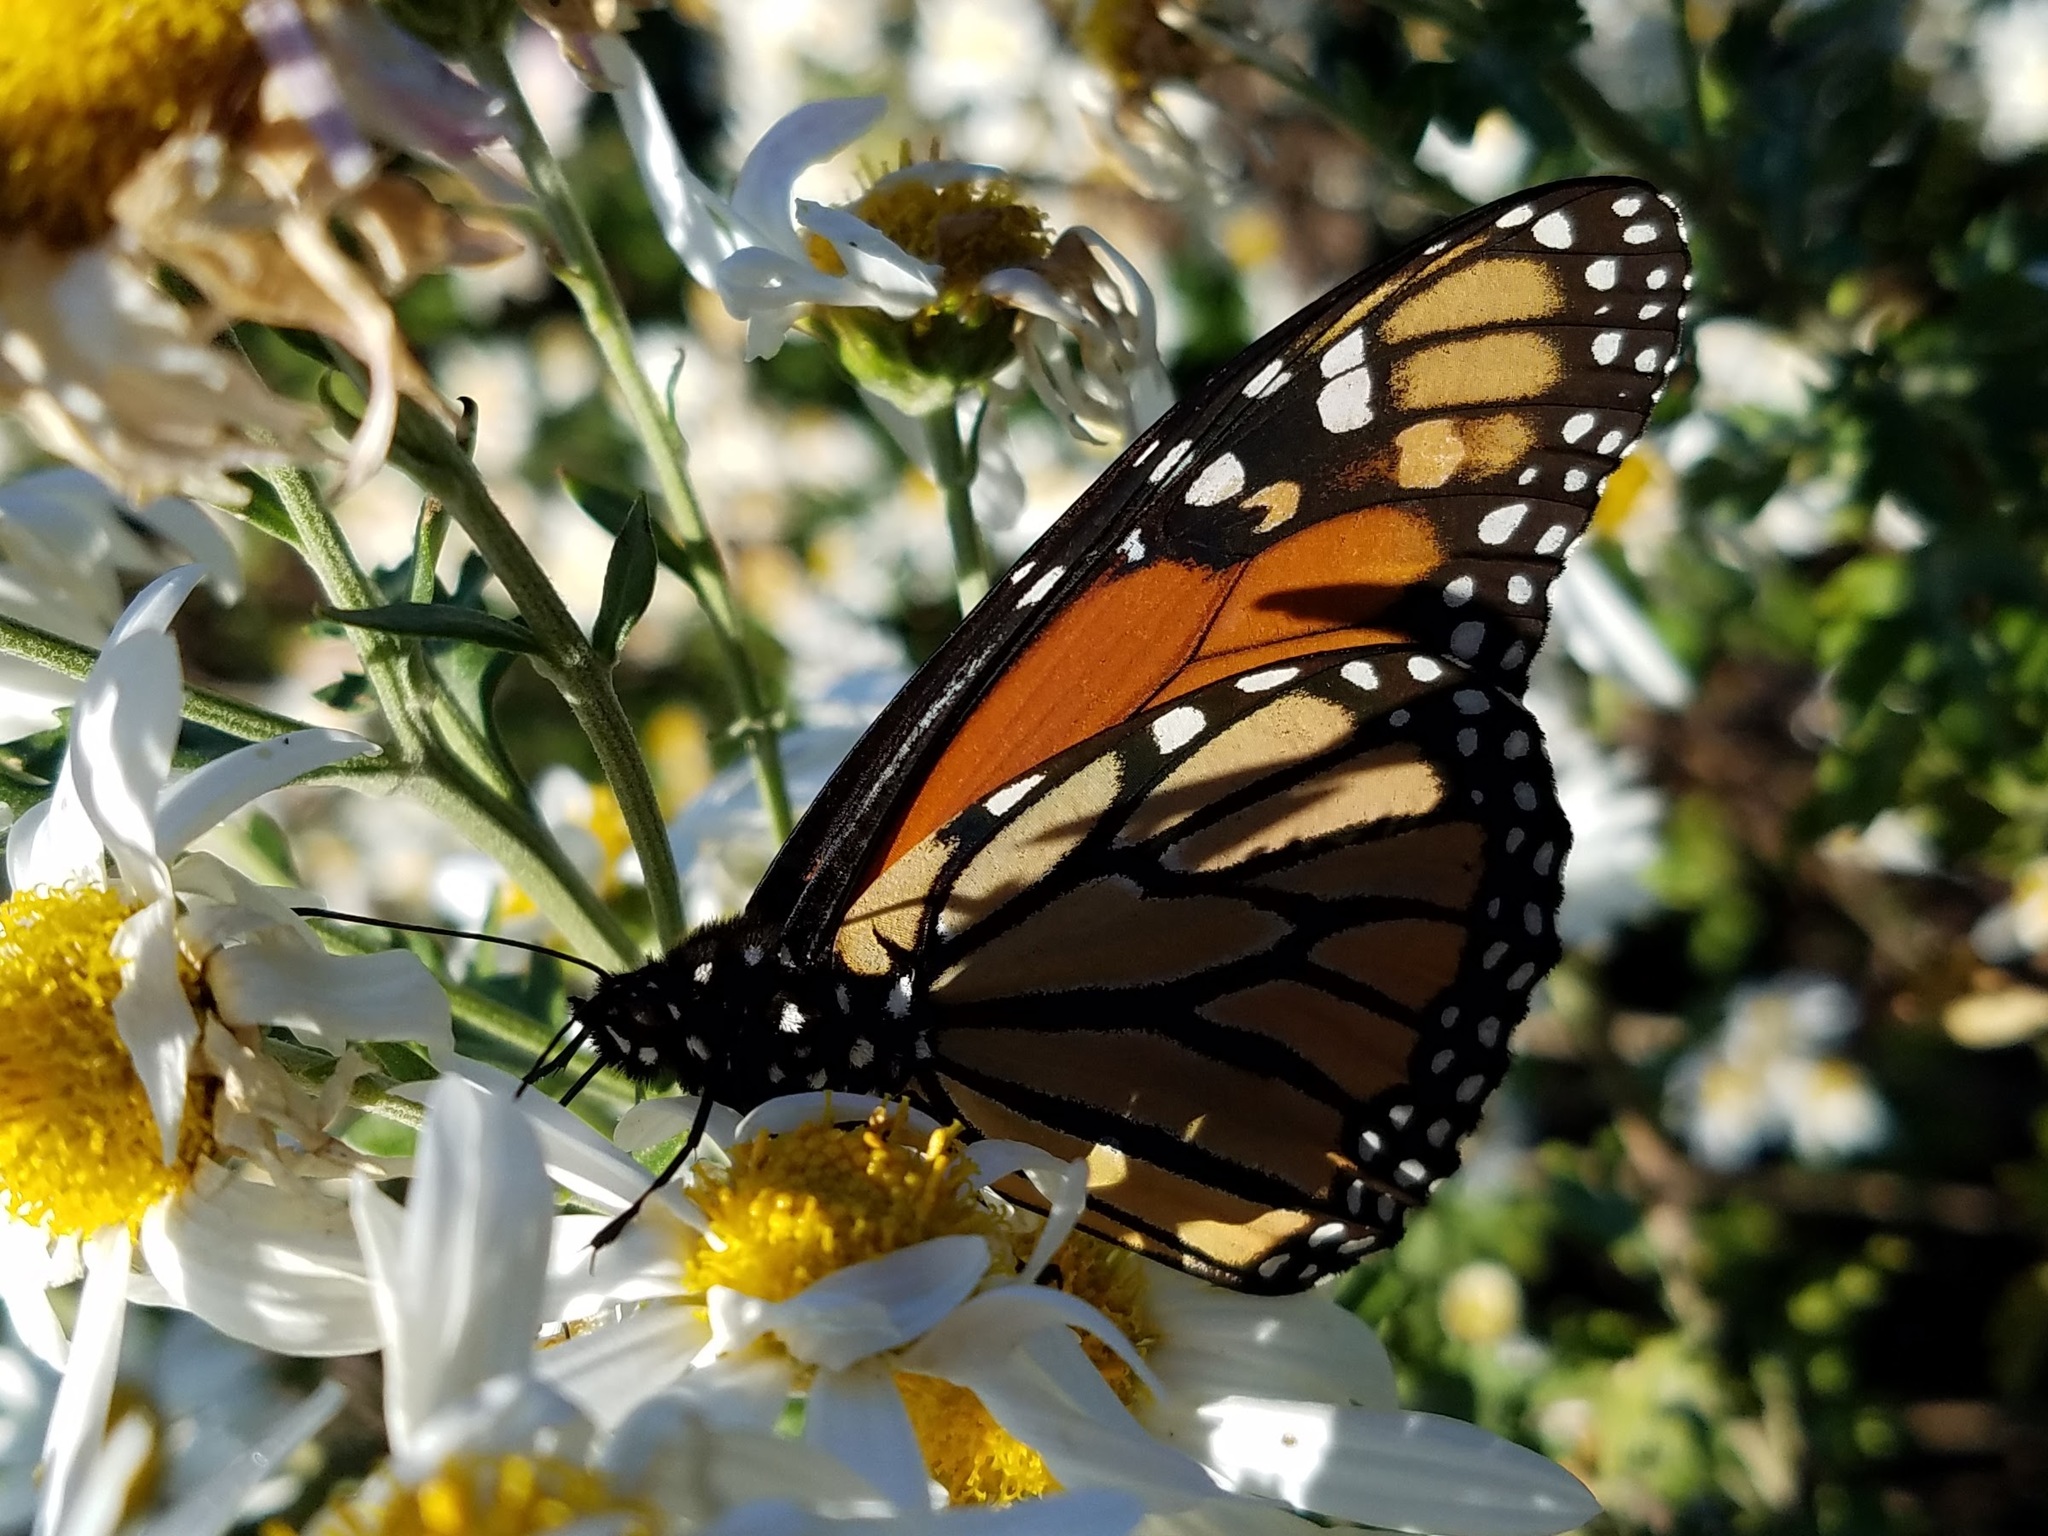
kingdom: Animalia
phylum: Arthropoda
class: Insecta
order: Lepidoptera
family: Nymphalidae
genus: Danaus
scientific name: Danaus plexippus
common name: Monarch
